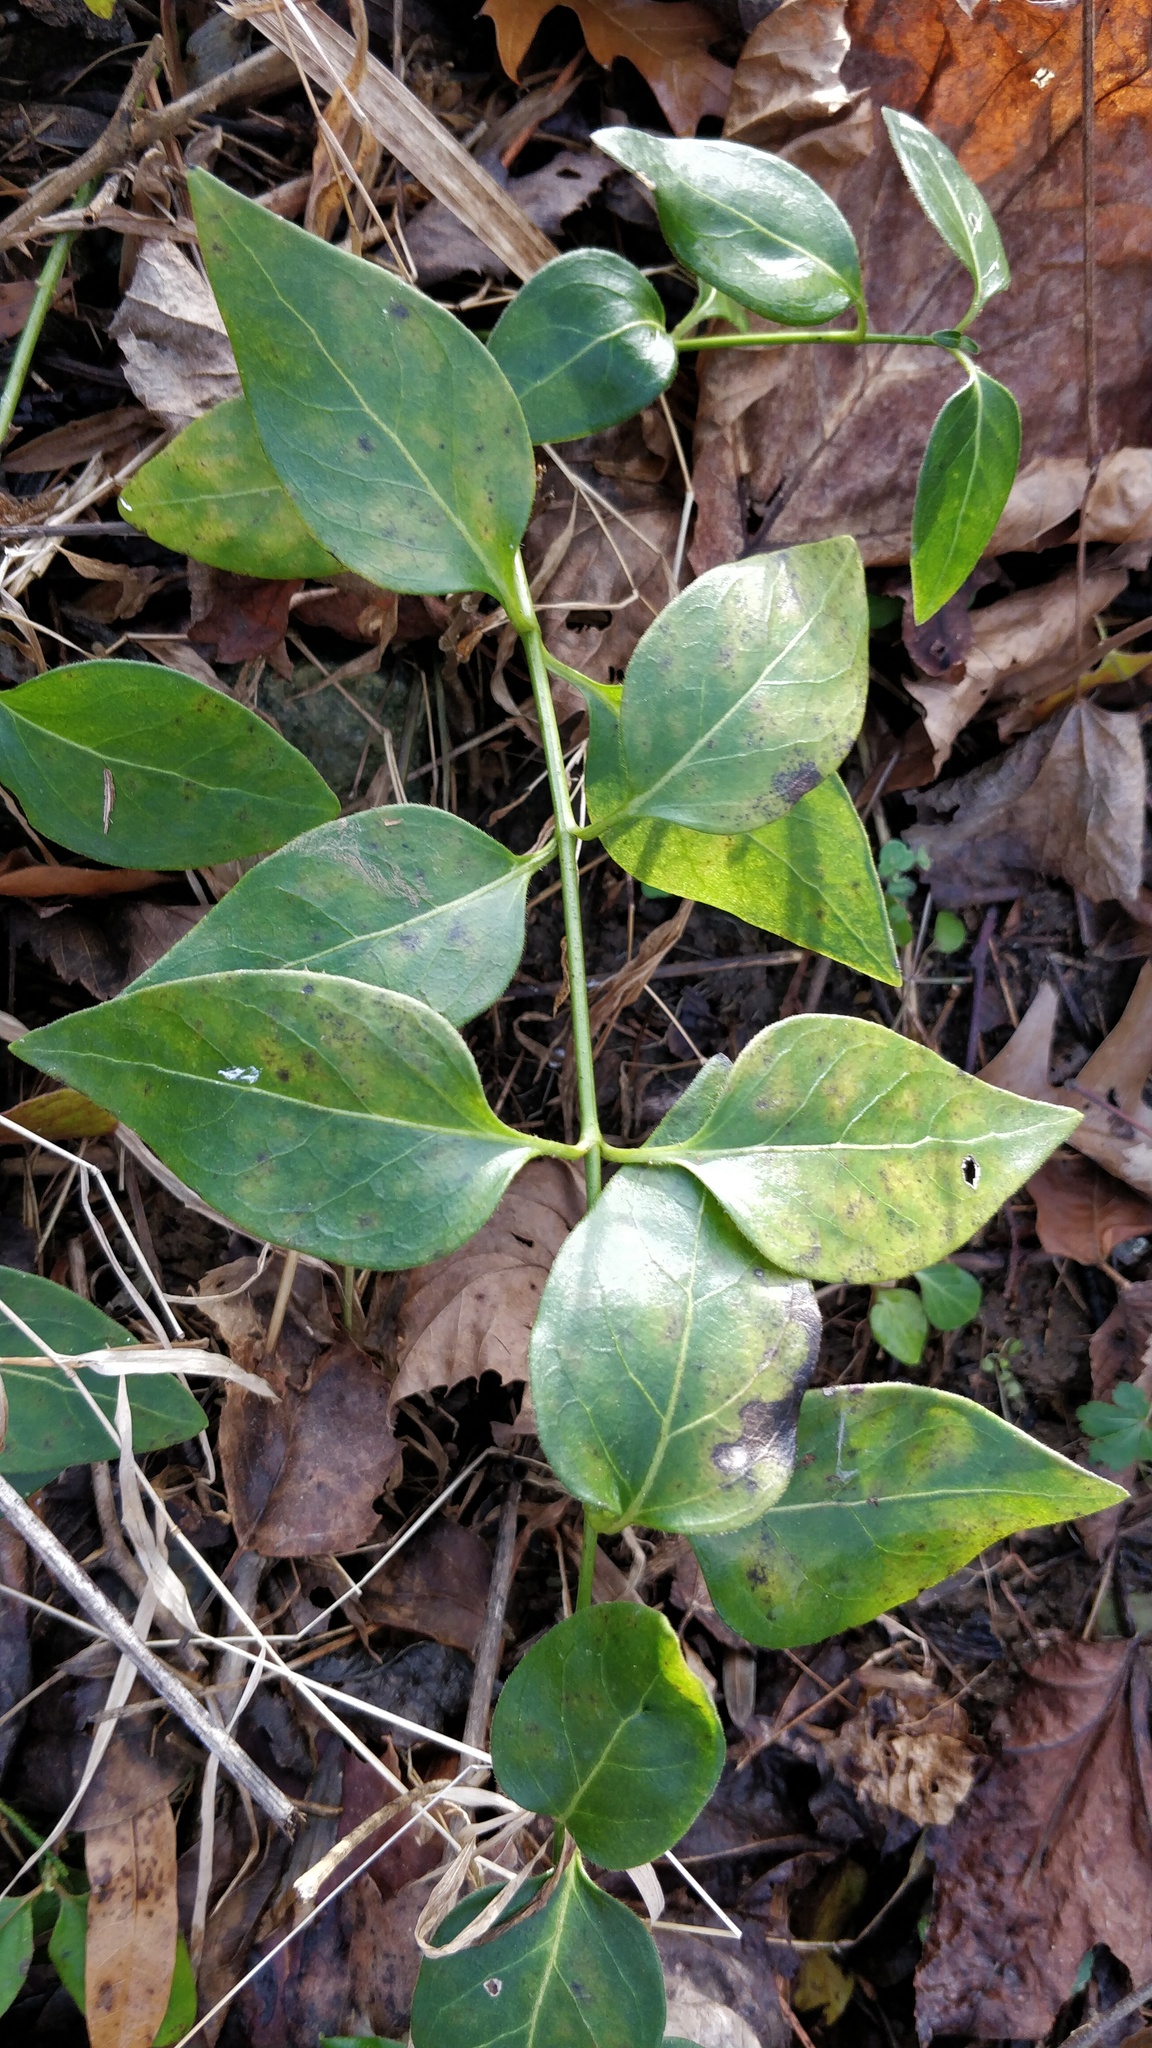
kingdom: Plantae
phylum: Tracheophyta
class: Magnoliopsida
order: Gentianales
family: Apocynaceae
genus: Vinca
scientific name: Vinca major
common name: Greater periwinkle
